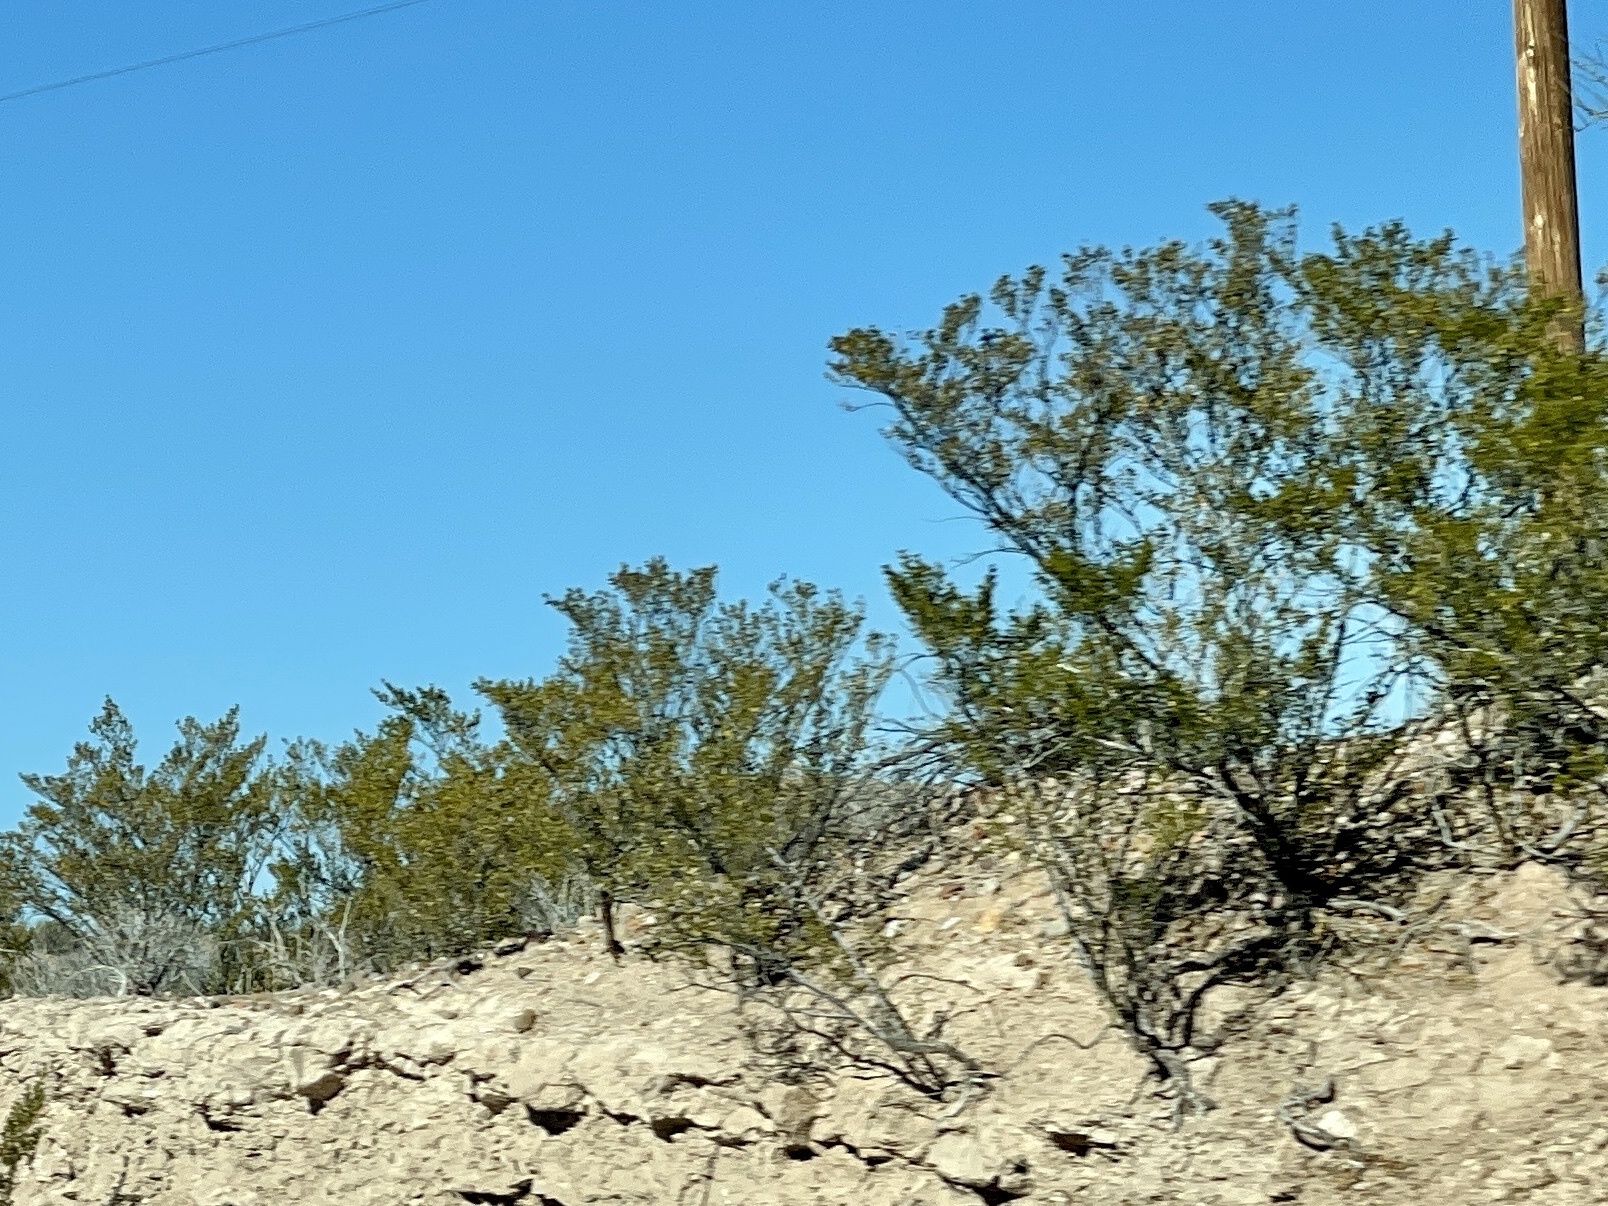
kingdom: Plantae
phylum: Tracheophyta
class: Magnoliopsida
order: Zygophyllales
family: Zygophyllaceae
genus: Larrea
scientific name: Larrea tridentata
